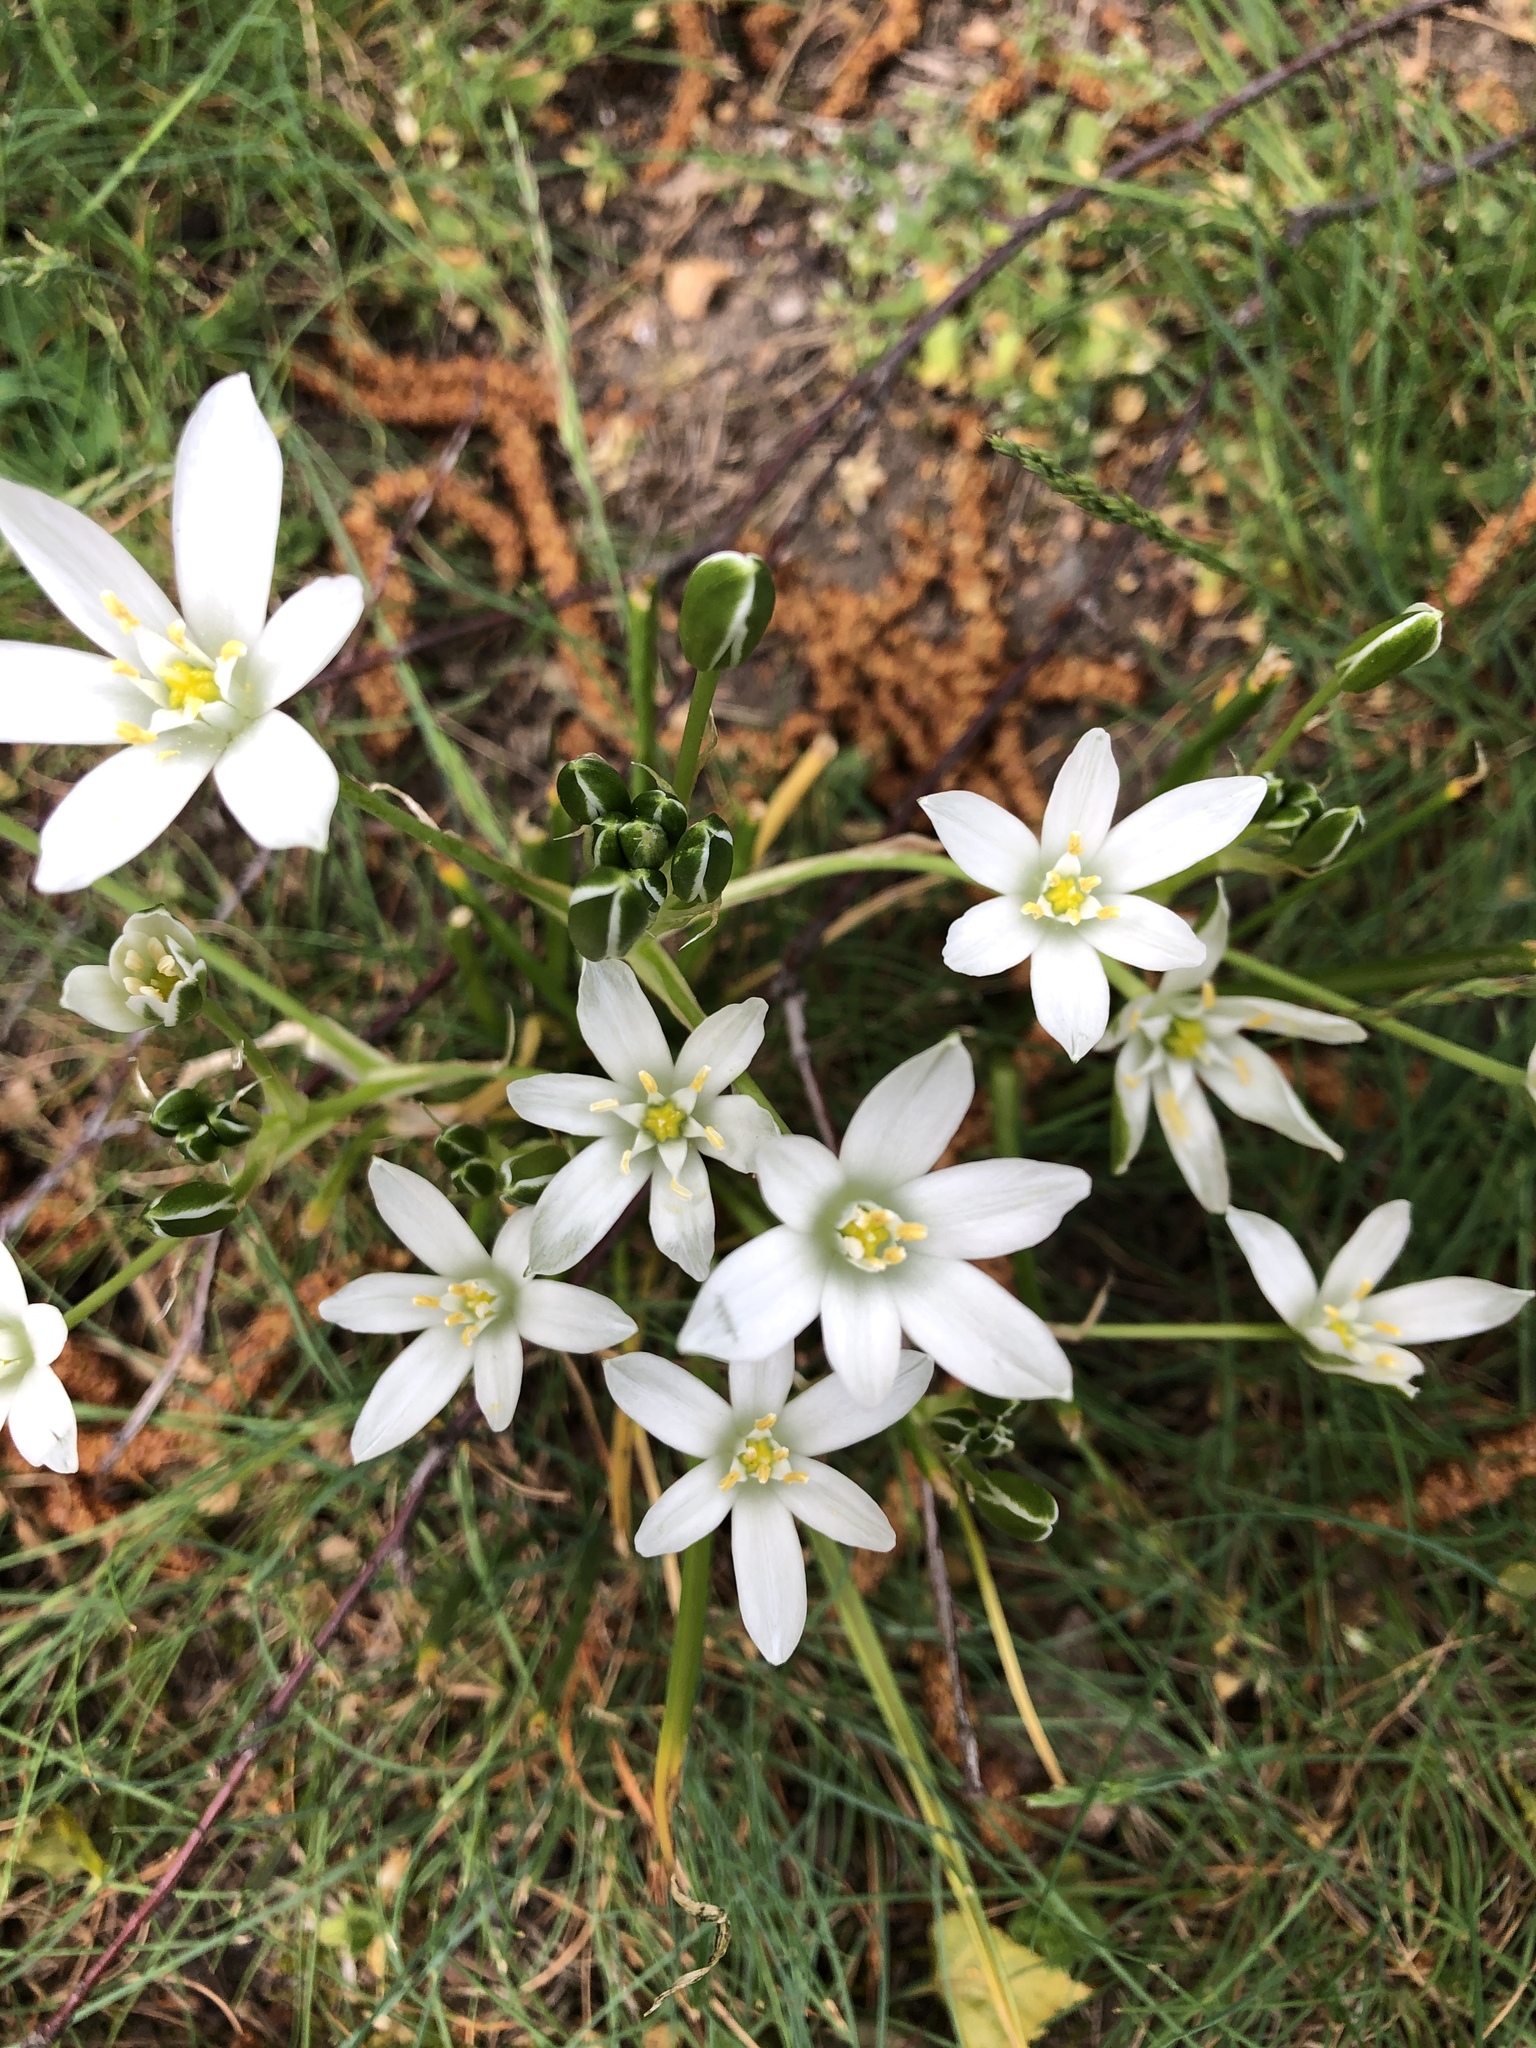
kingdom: Plantae
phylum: Tracheophyta
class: Liliopsida
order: Asparagales
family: Asparagaceae
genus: Ornithogalum
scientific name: Ornithogalum umbellatum
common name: Garden star-of-bethlehem
